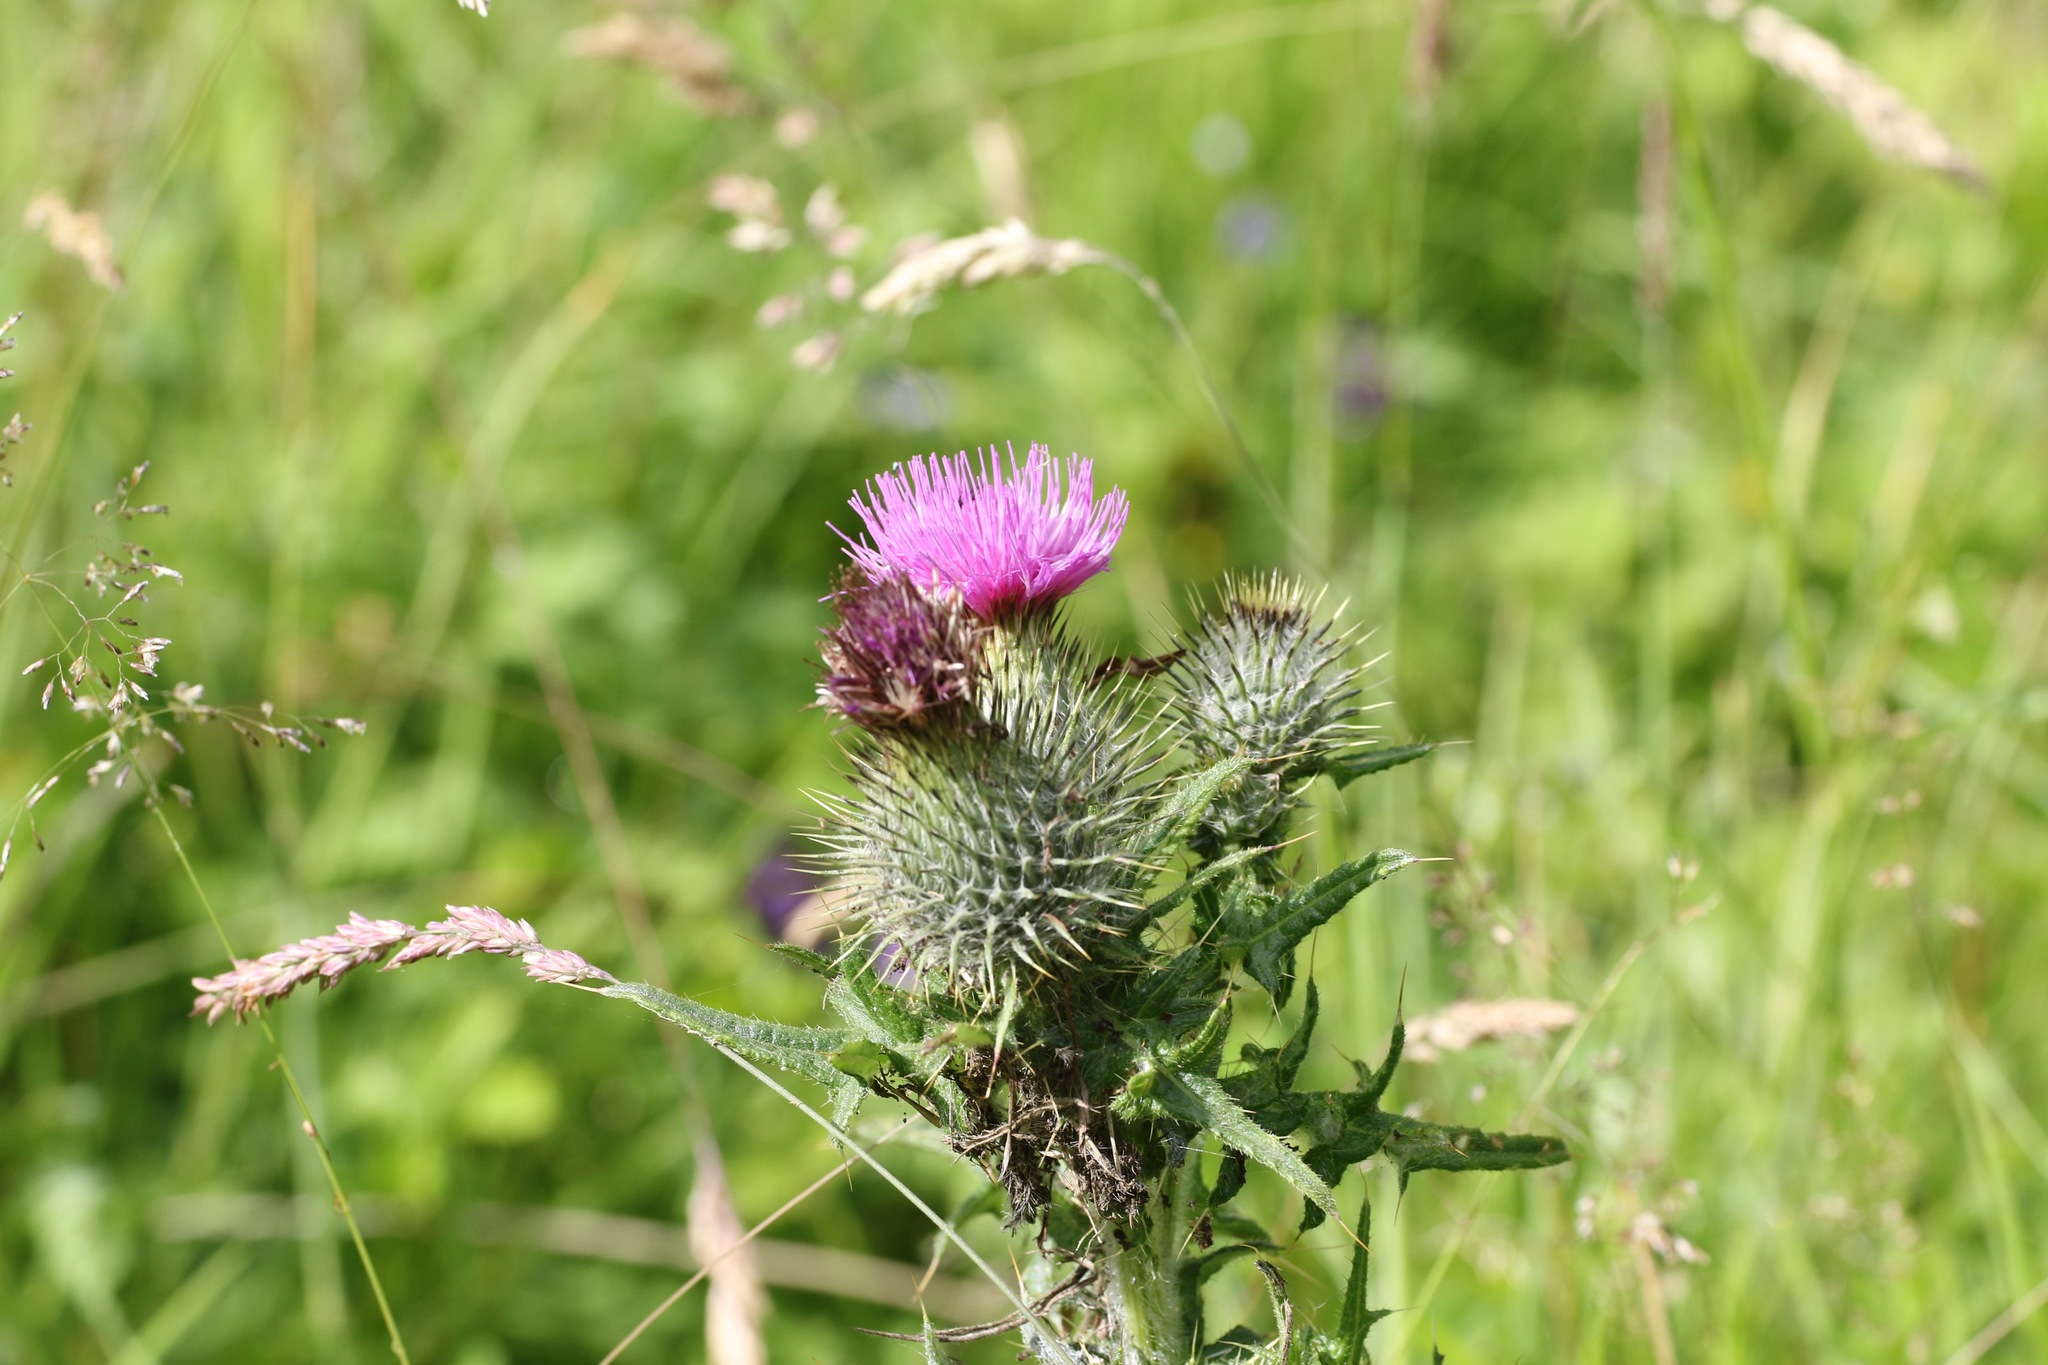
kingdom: Plantae
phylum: Tracheophyta
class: Magnoliopsida
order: Asterales
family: Asteraceae
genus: Cirsium
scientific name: Cirsium vulgare
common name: Bull thistle
